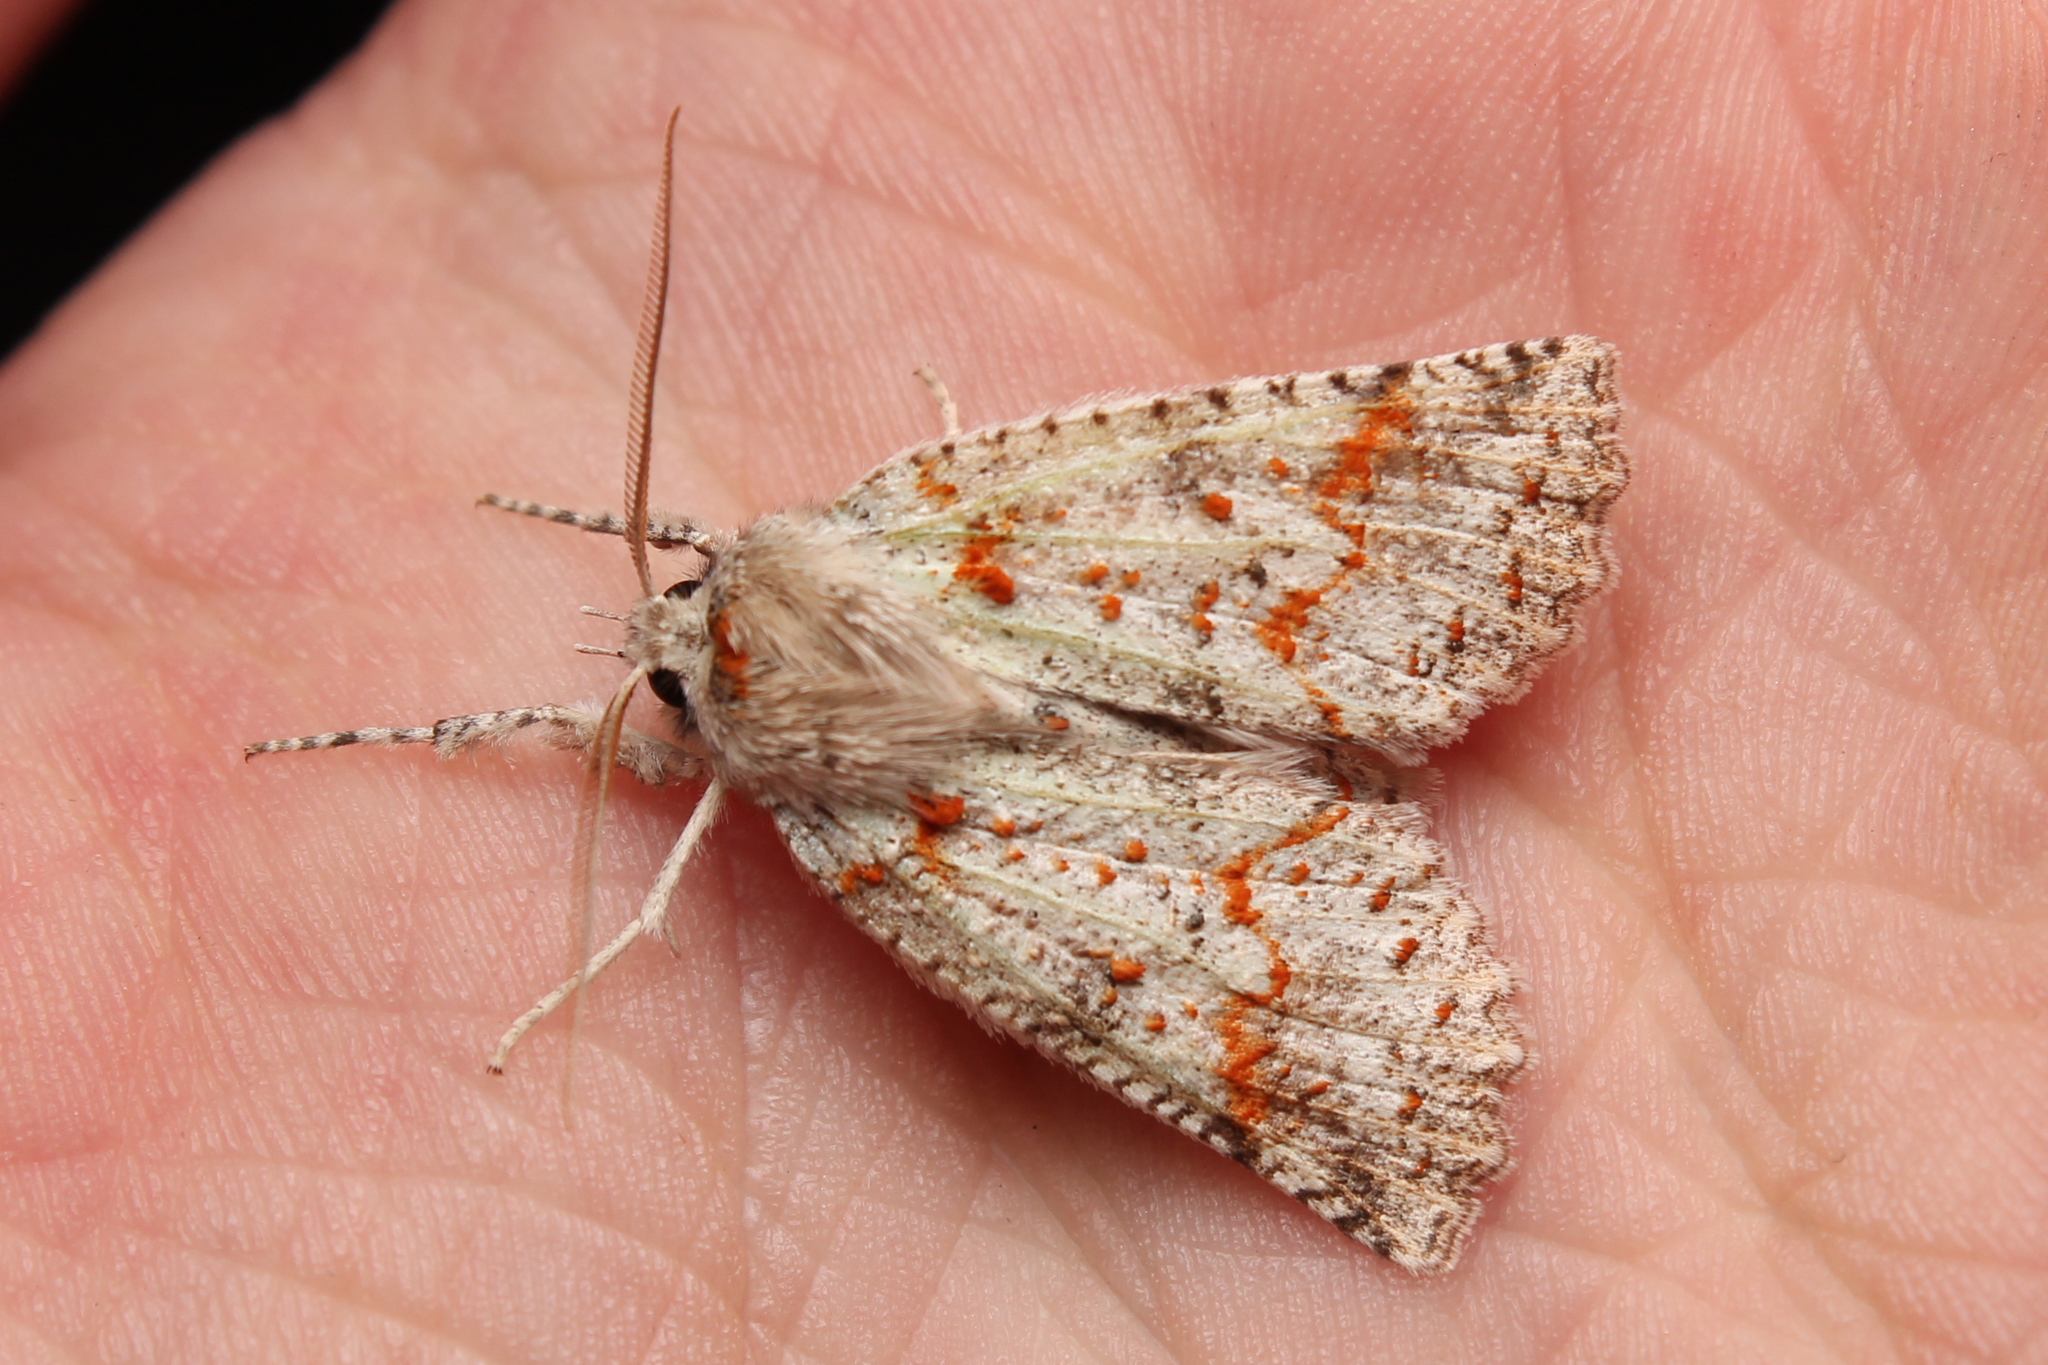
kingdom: Animalia
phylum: Arthropoda
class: Insecta
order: Lepidoptera
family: Geometridae
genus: Declana
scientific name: Declana floccosa
